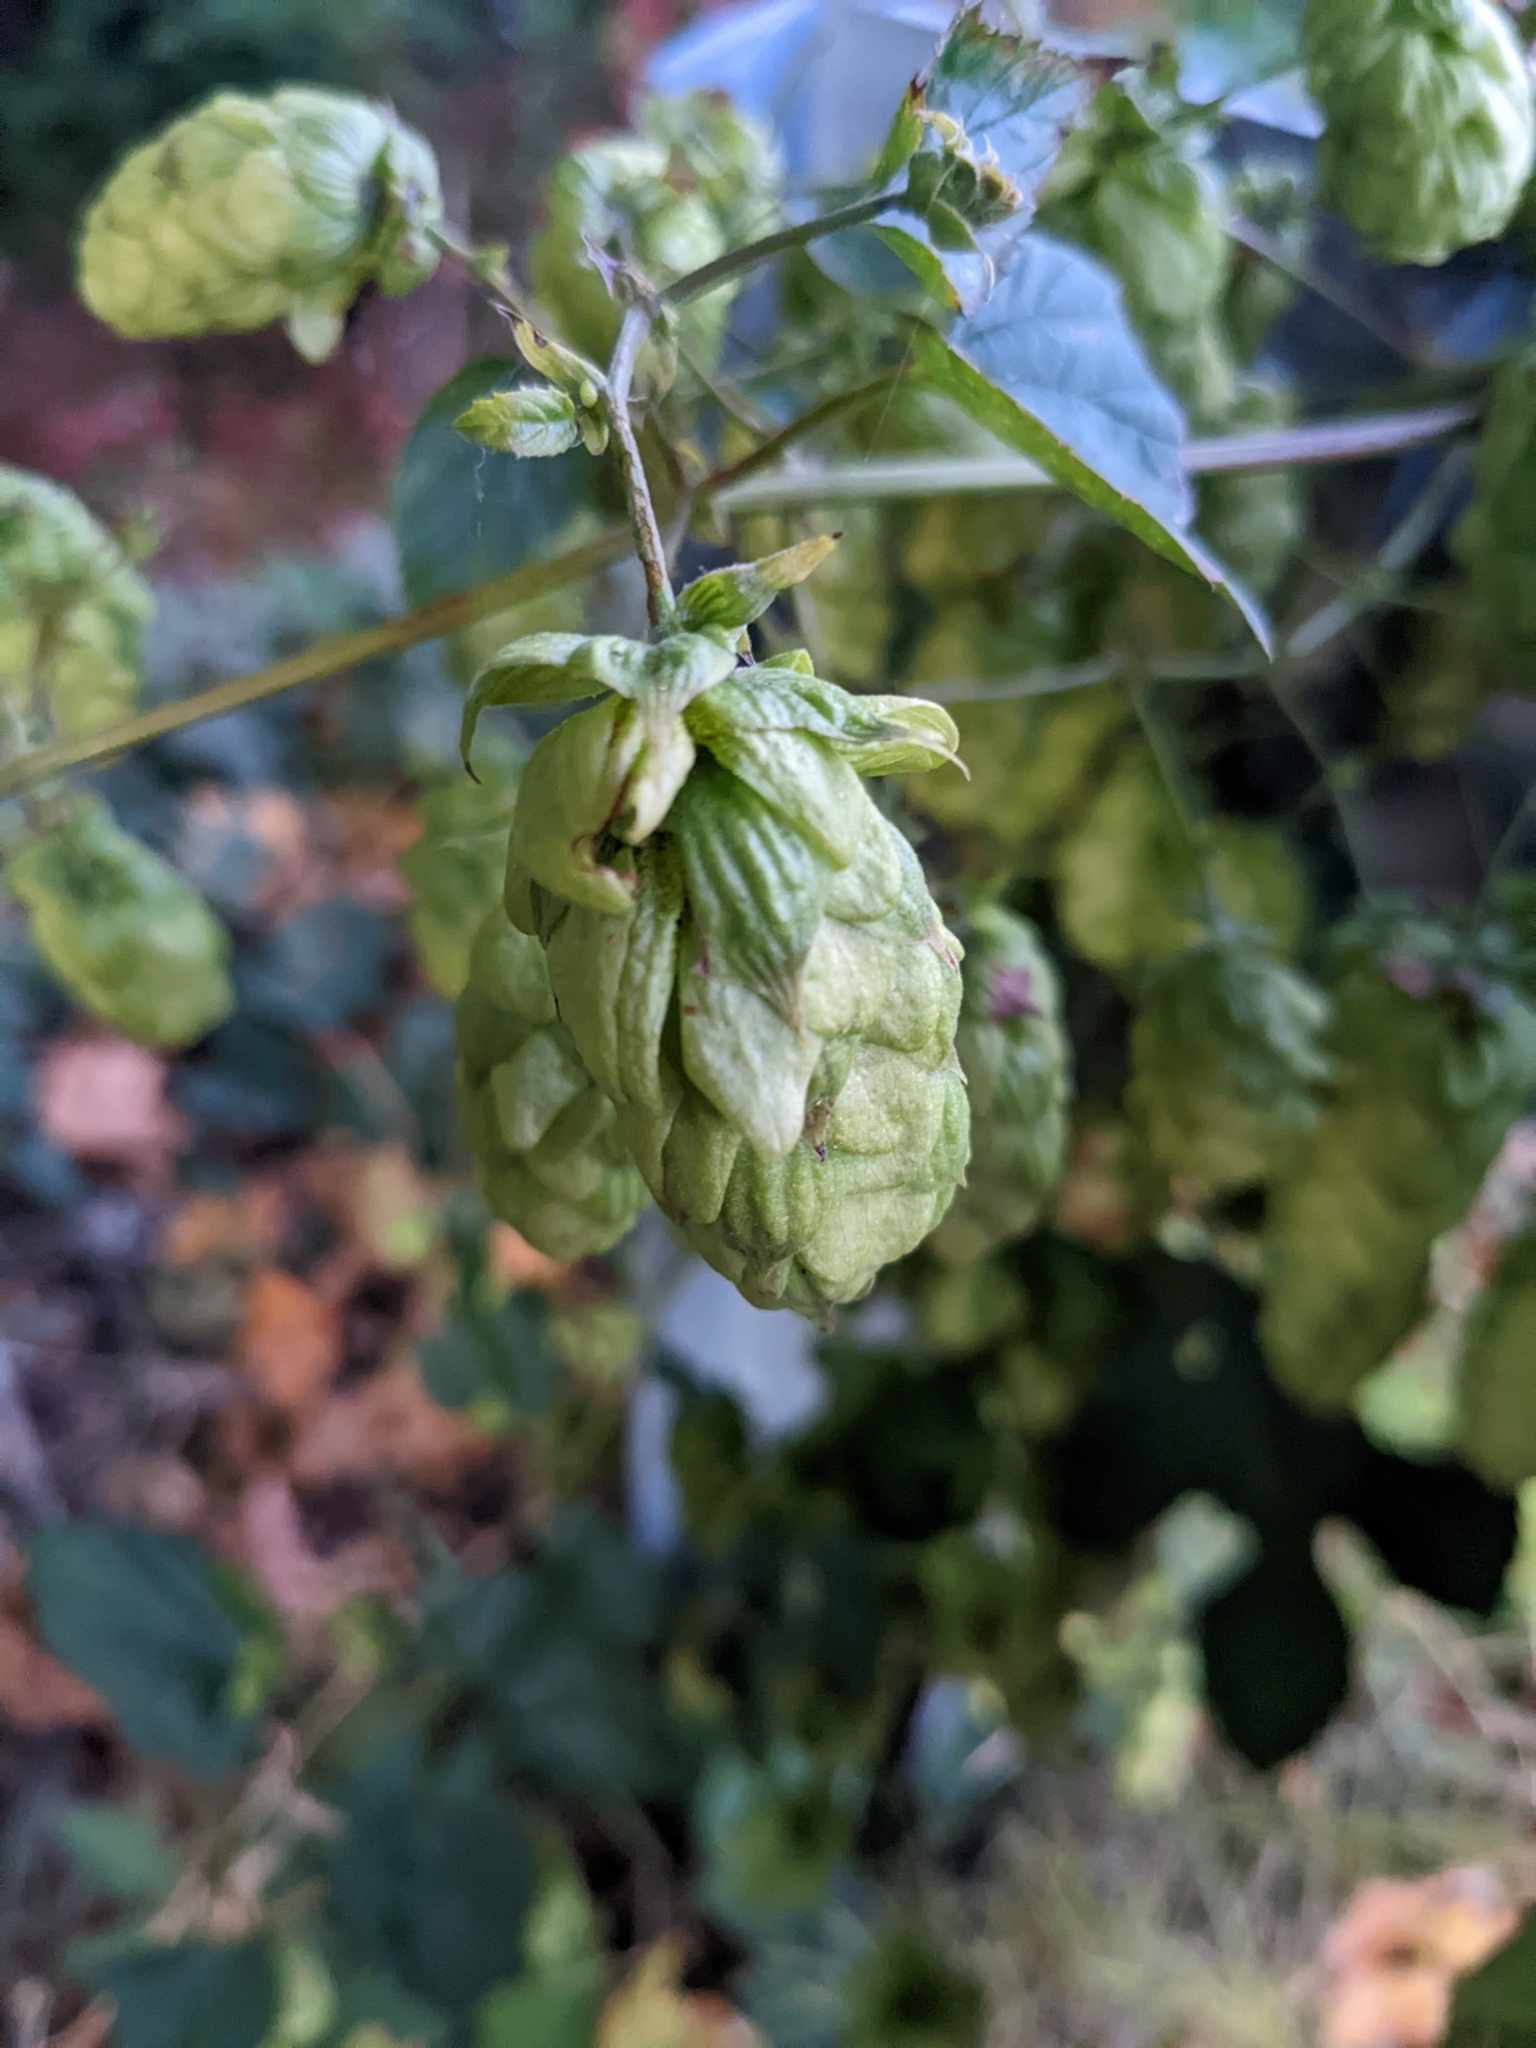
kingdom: Plantae
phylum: Tracheophyta
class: Magnoliopsida
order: Rosales
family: Cannabaceae
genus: Humulus
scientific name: Humulus lupulus
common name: Hop
